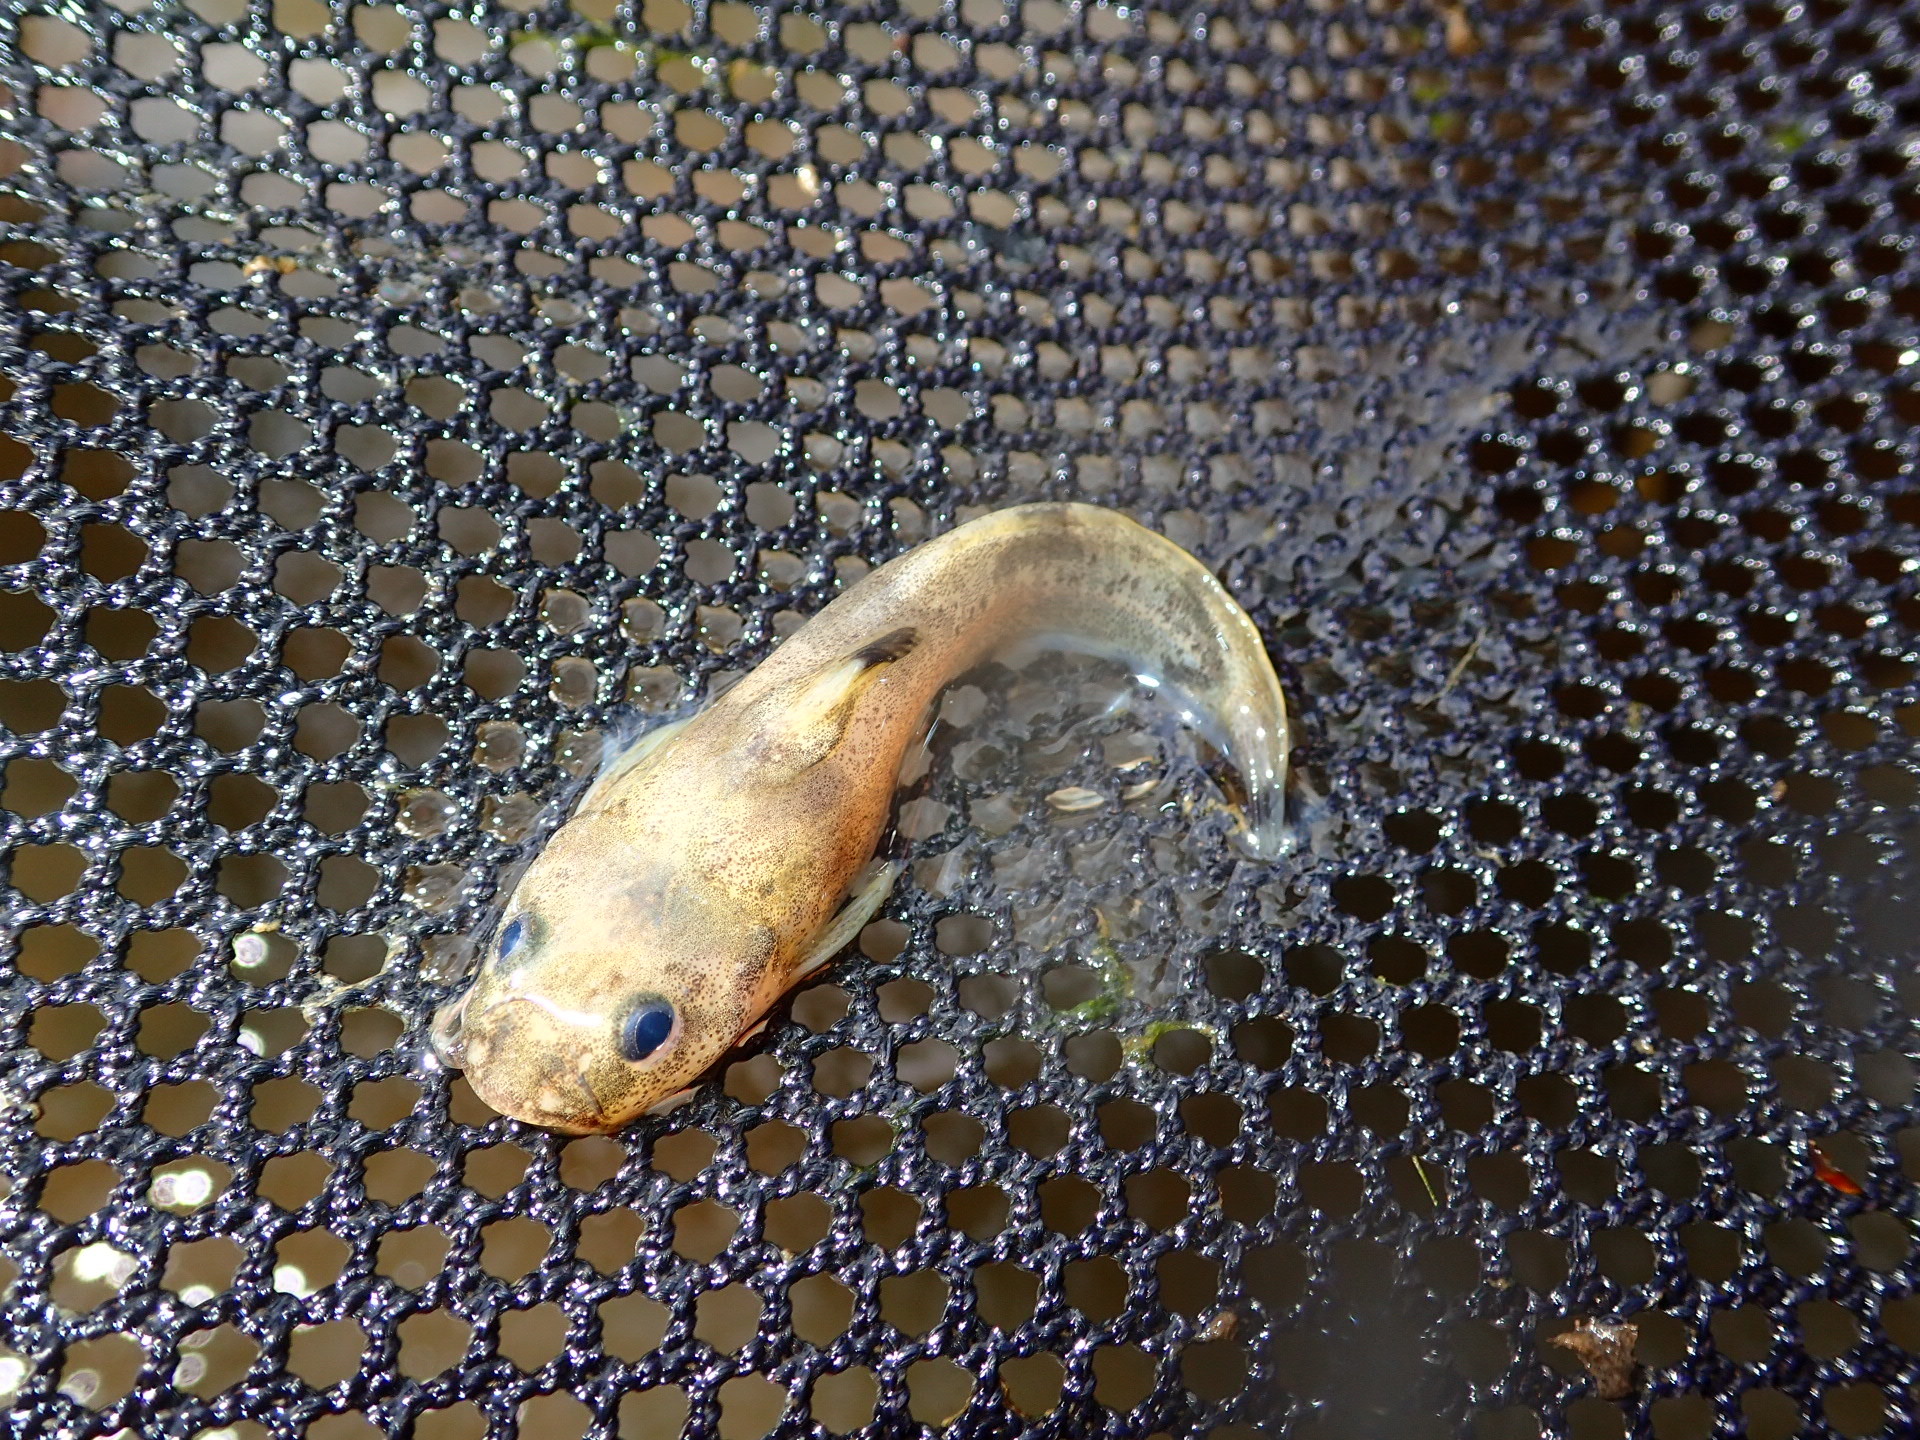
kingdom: Animalia
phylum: Chordata
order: Siluriformes
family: Ictaluridae
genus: Noturus
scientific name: Noturus miurus
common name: Brindled madtom
